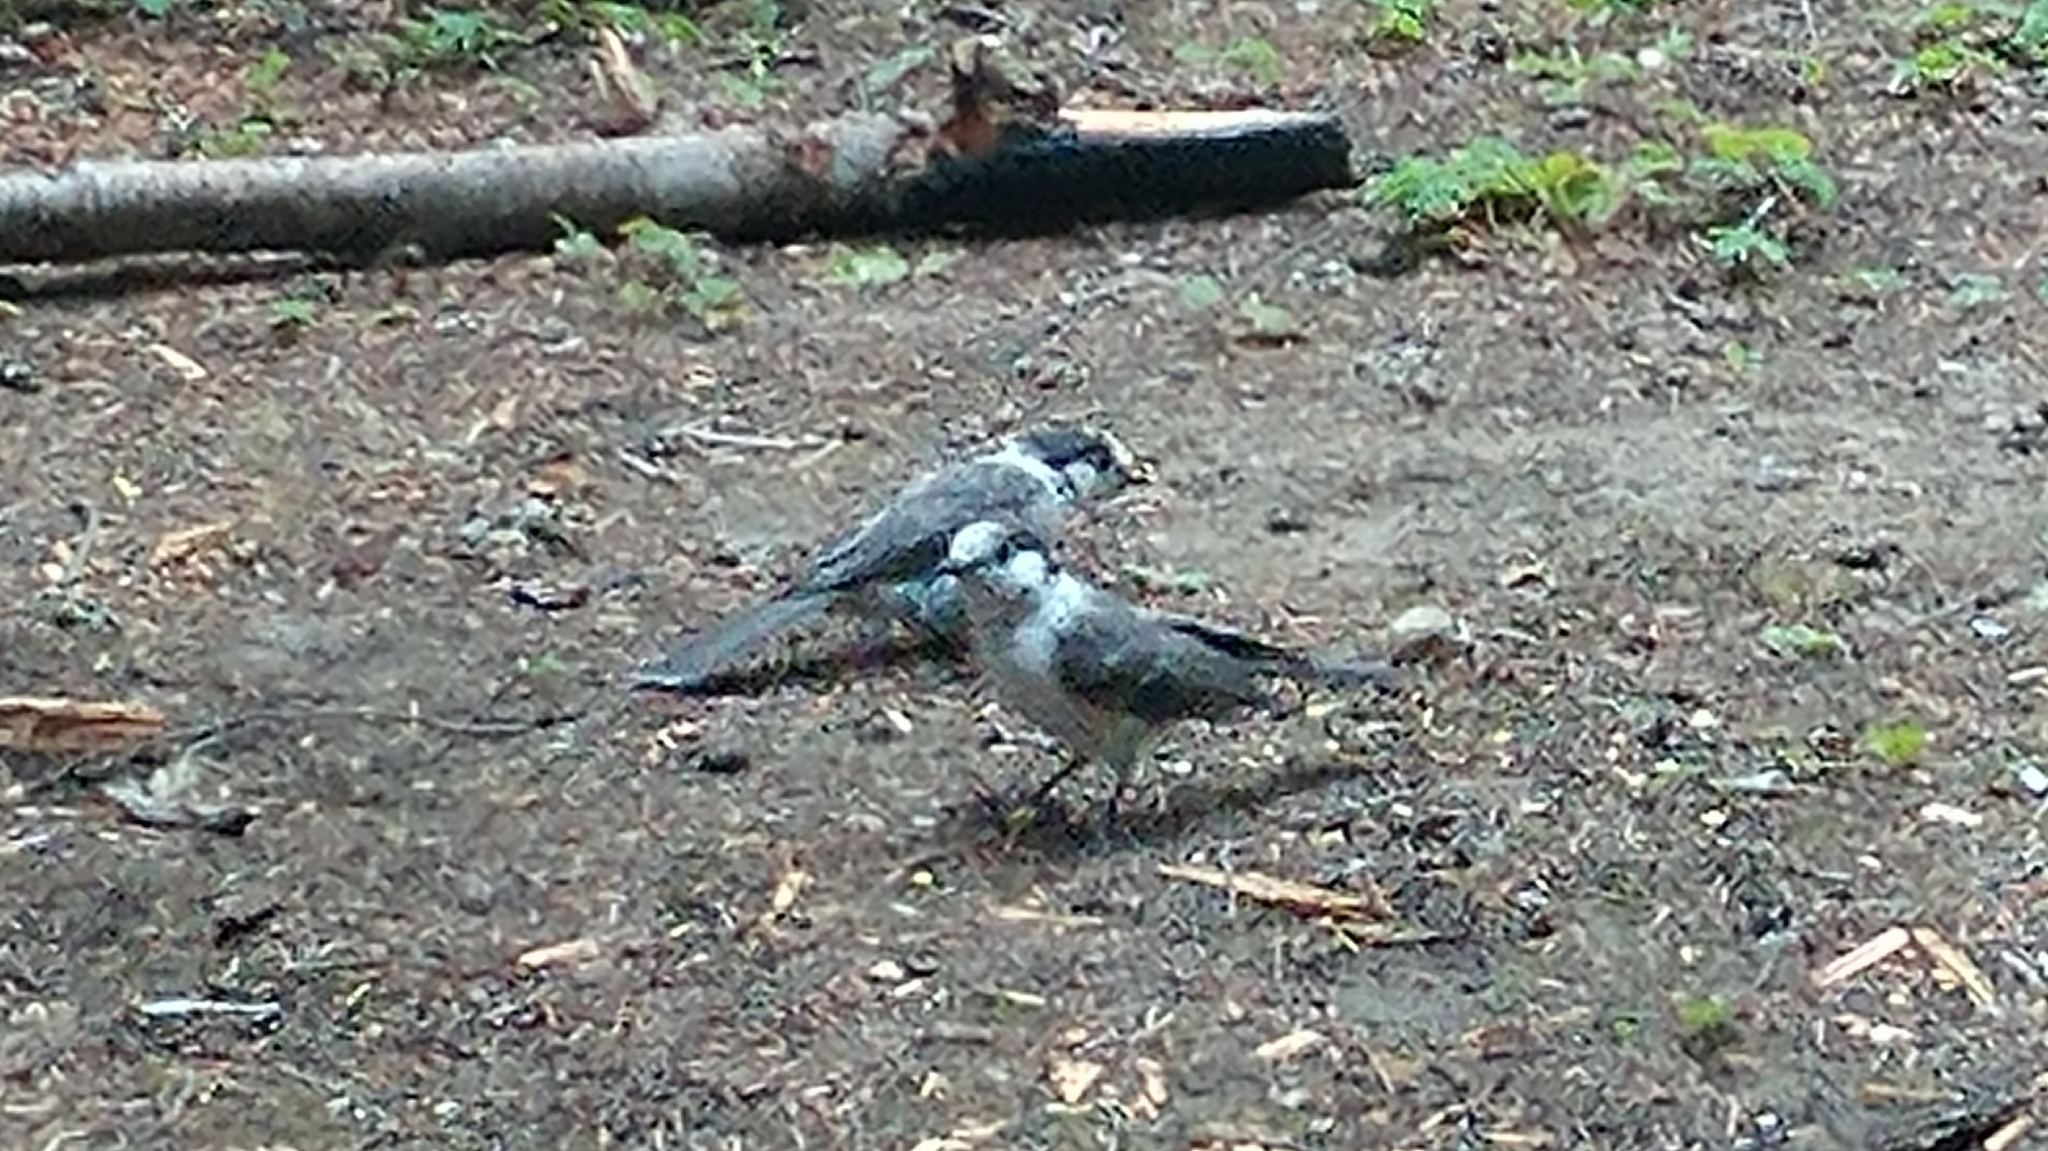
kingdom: Animalia
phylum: Chordata
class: Aves
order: Passeriformes
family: Corvidae
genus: Perisoreus
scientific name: Perisoreus canadensis
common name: Gray jay
